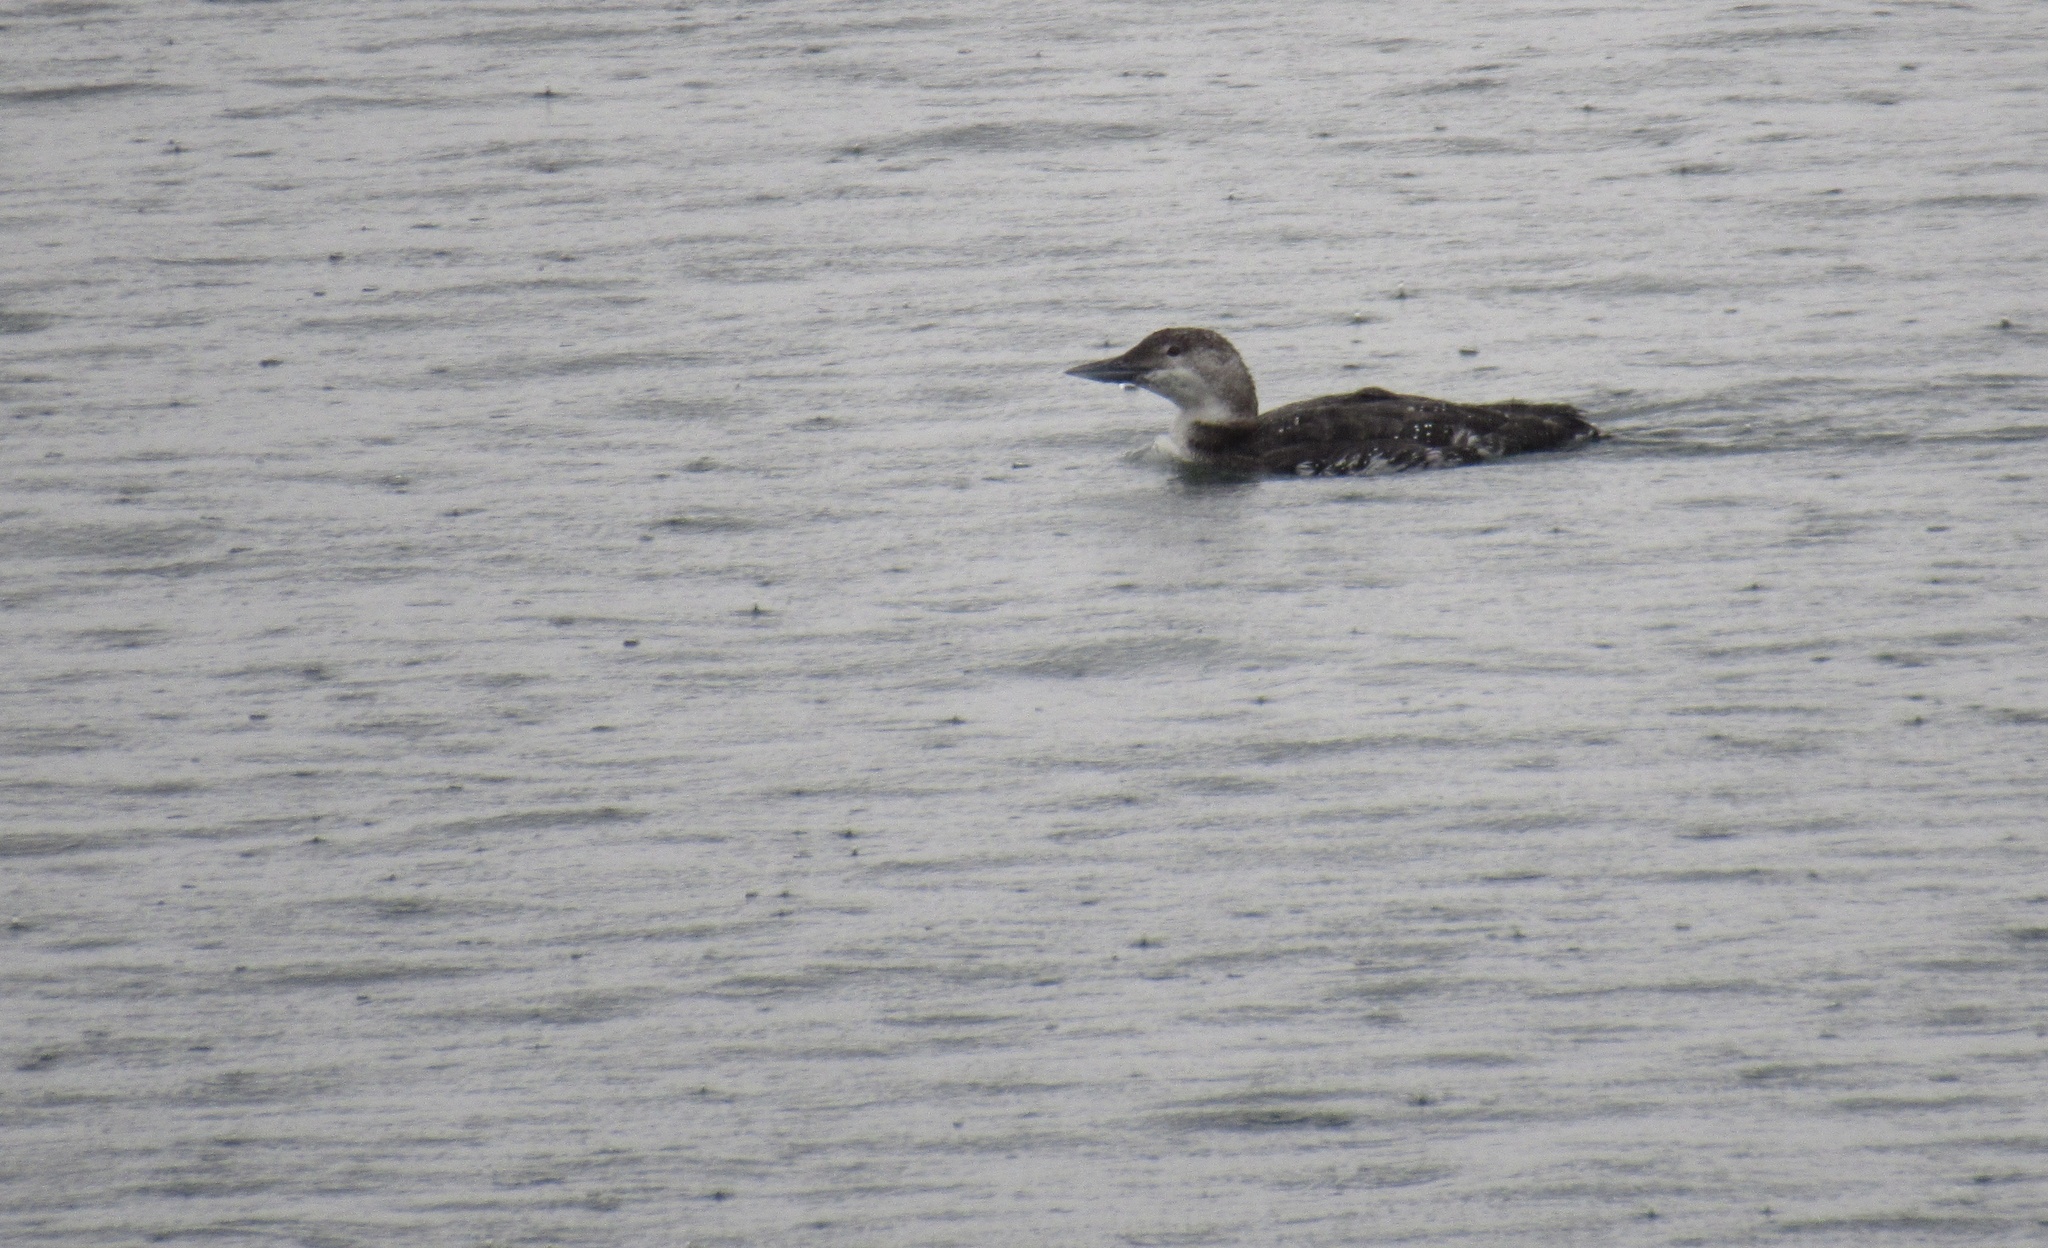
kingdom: Animalia
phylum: Chordata
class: Aves
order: Gaviiformes
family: Gaviidae
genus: Gavia
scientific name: Gavia immer
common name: Common loon
